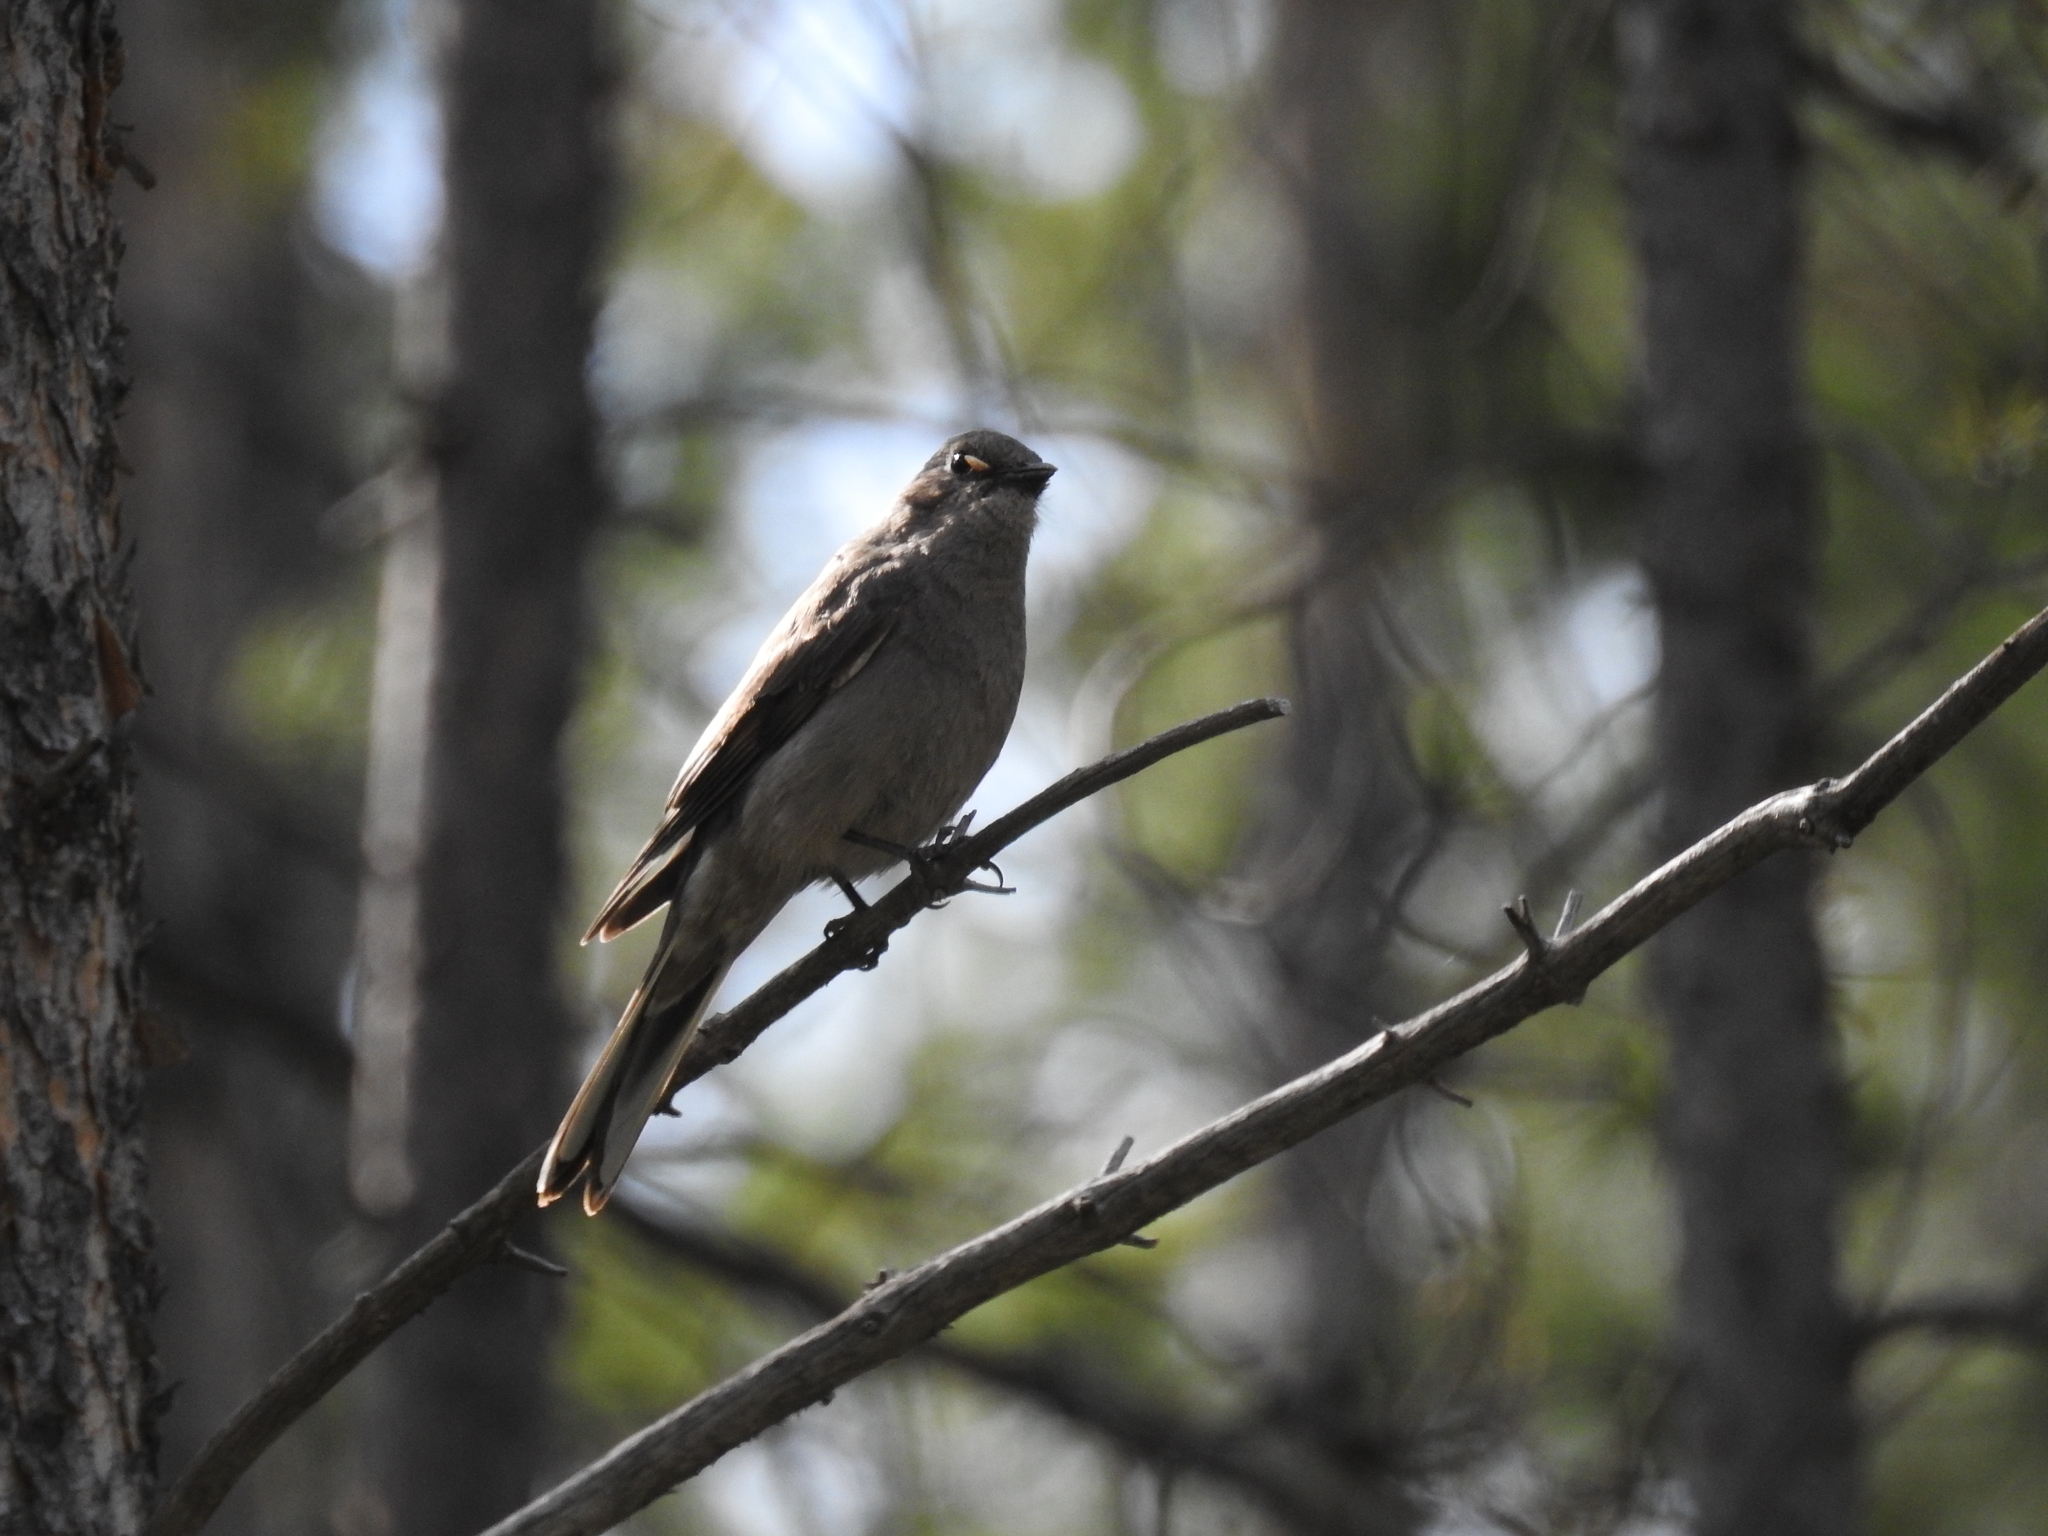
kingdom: Animalia
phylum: Chordata
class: Aves
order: Passeriformes
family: Turdidae
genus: Myadestes
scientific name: Myadestes townsendi
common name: Townsend's solitaire
